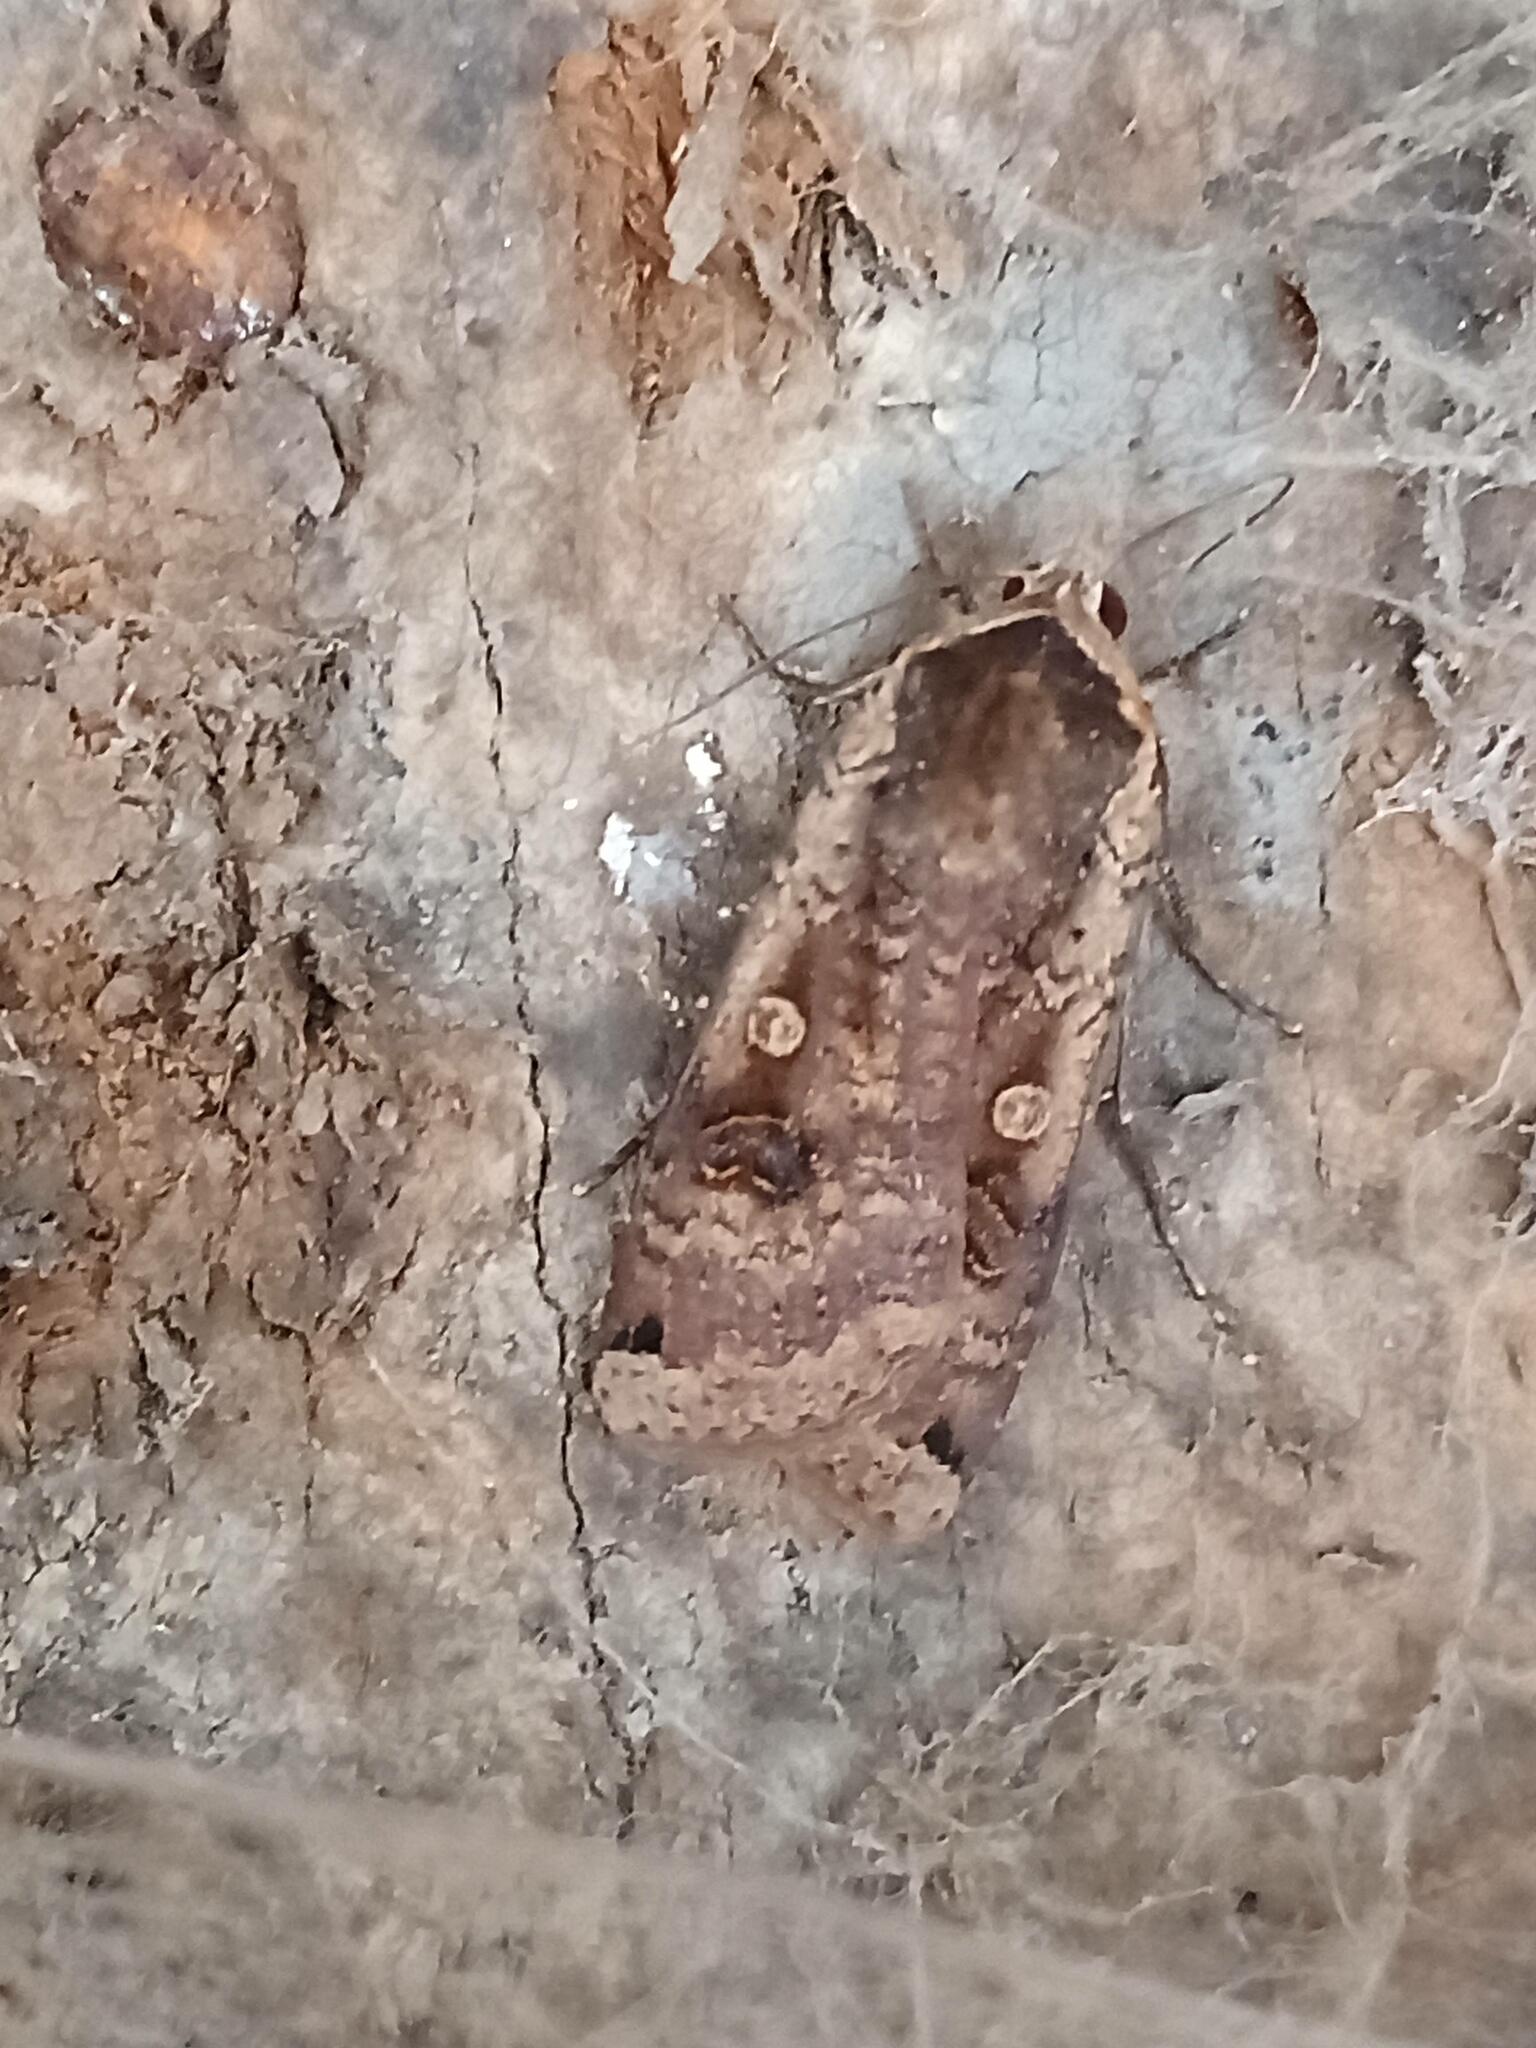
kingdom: Animalia
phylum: Arthropoda
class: Insecta
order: Lepidoptera
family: Noctuidae
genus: Noctua
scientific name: Noctua pronuba
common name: Large yellow underwing
